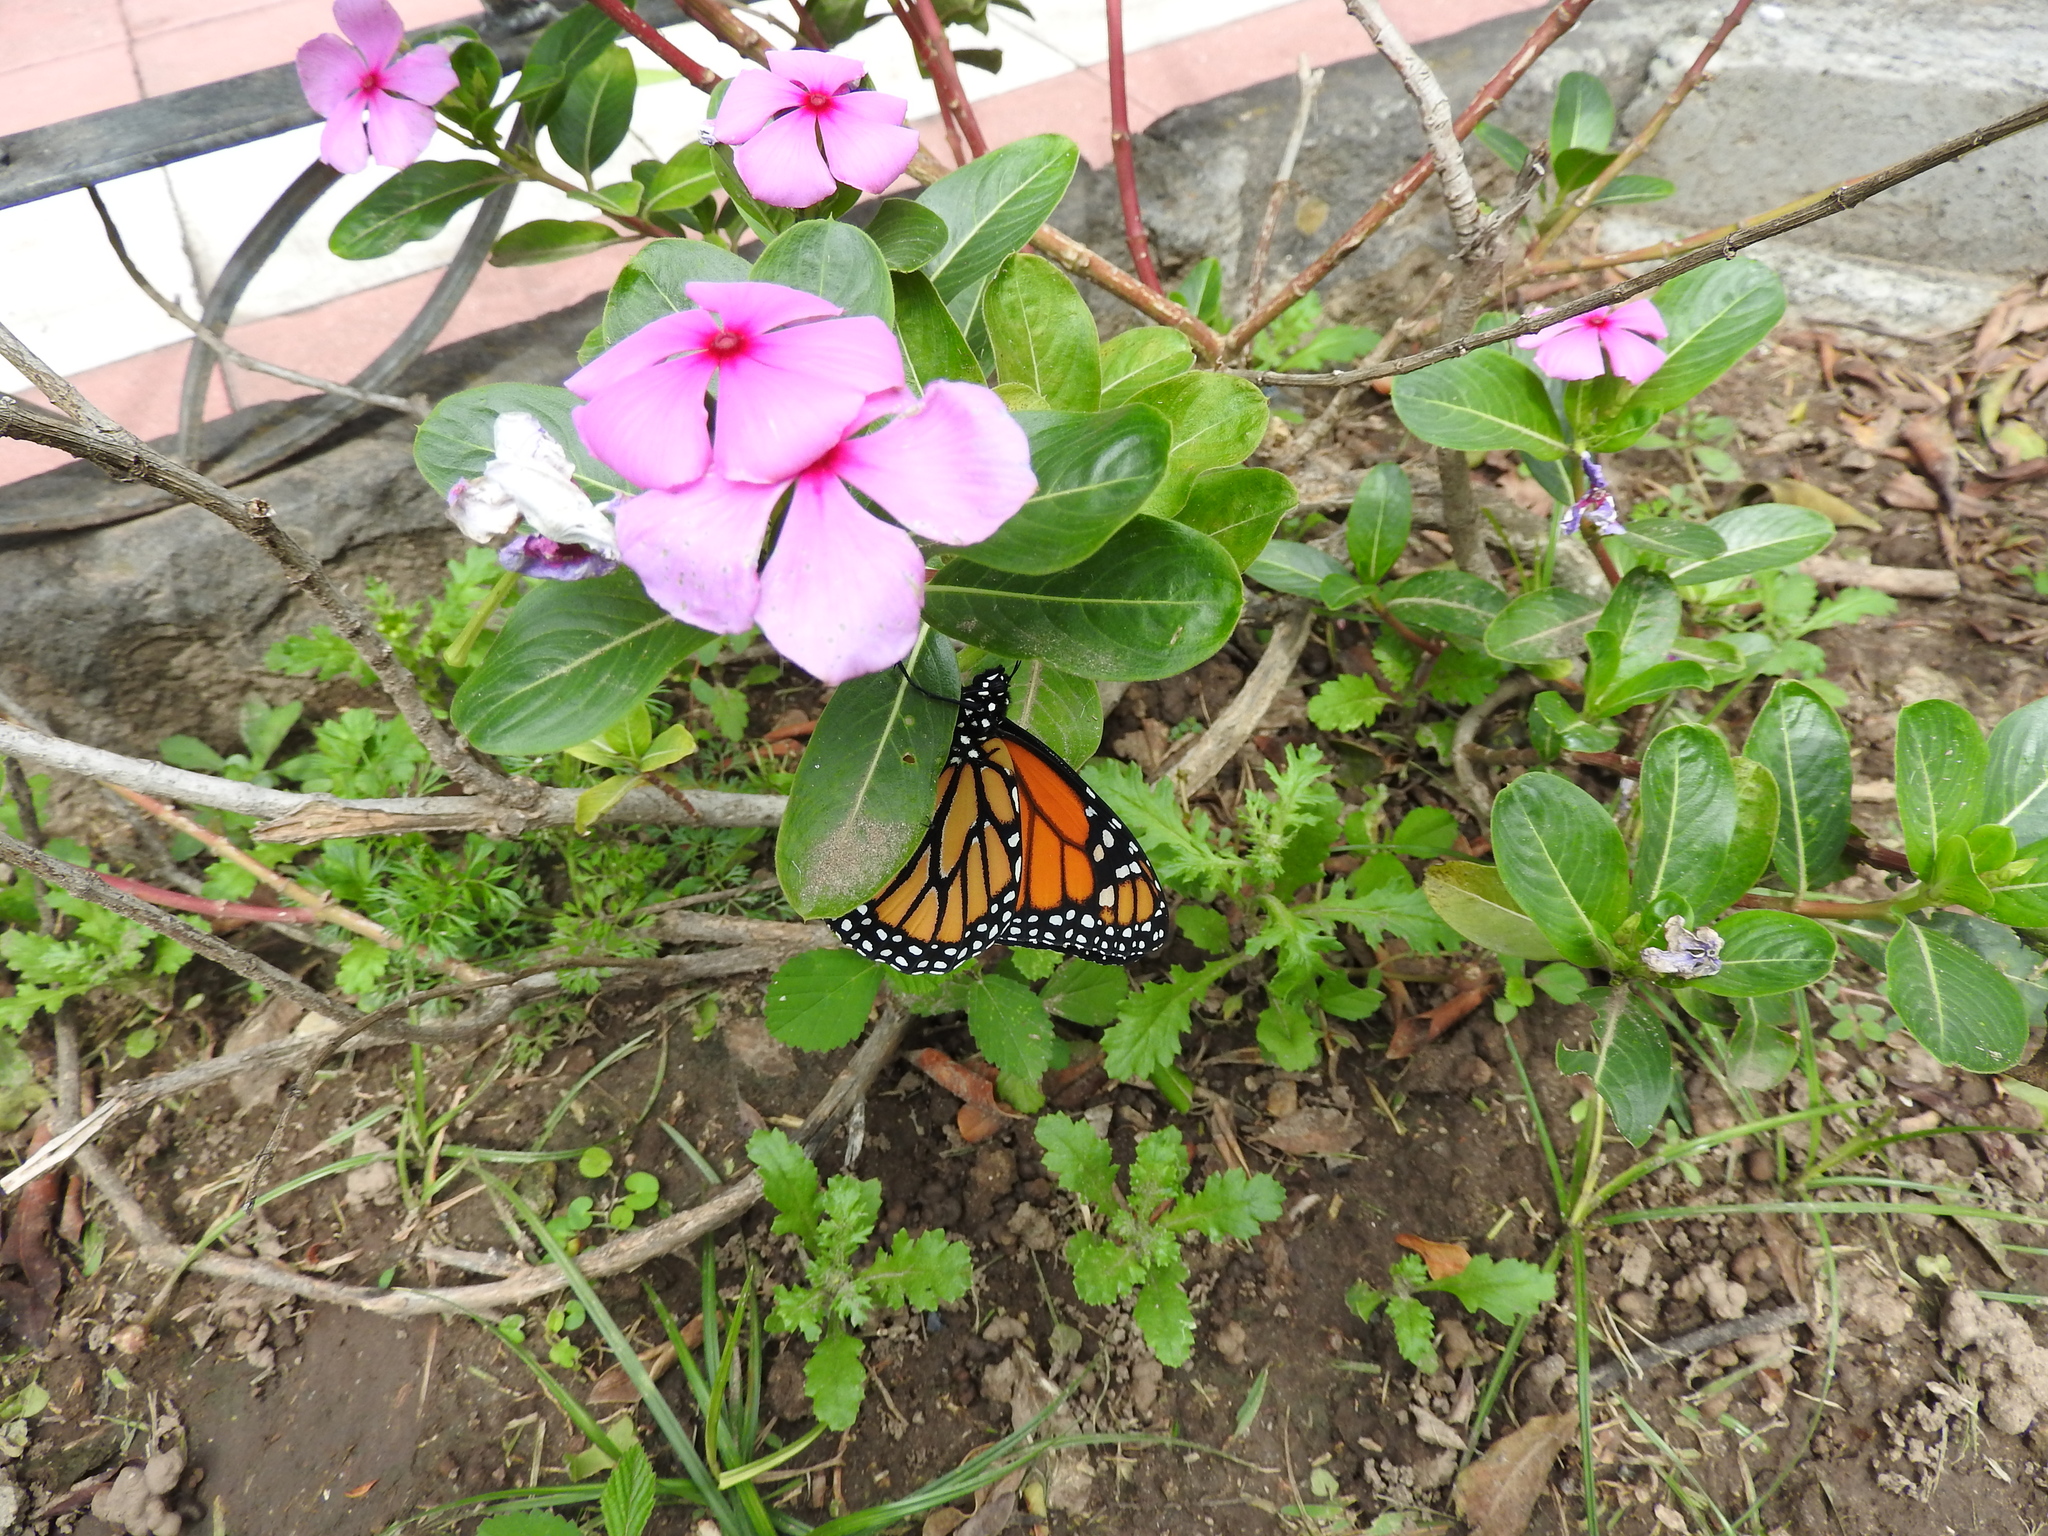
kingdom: Animalia
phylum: Arthropoda
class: Insecta
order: Lepidoptera
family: Nymphalidae
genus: Danaus
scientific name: Danaus plexippus
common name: Monarch
